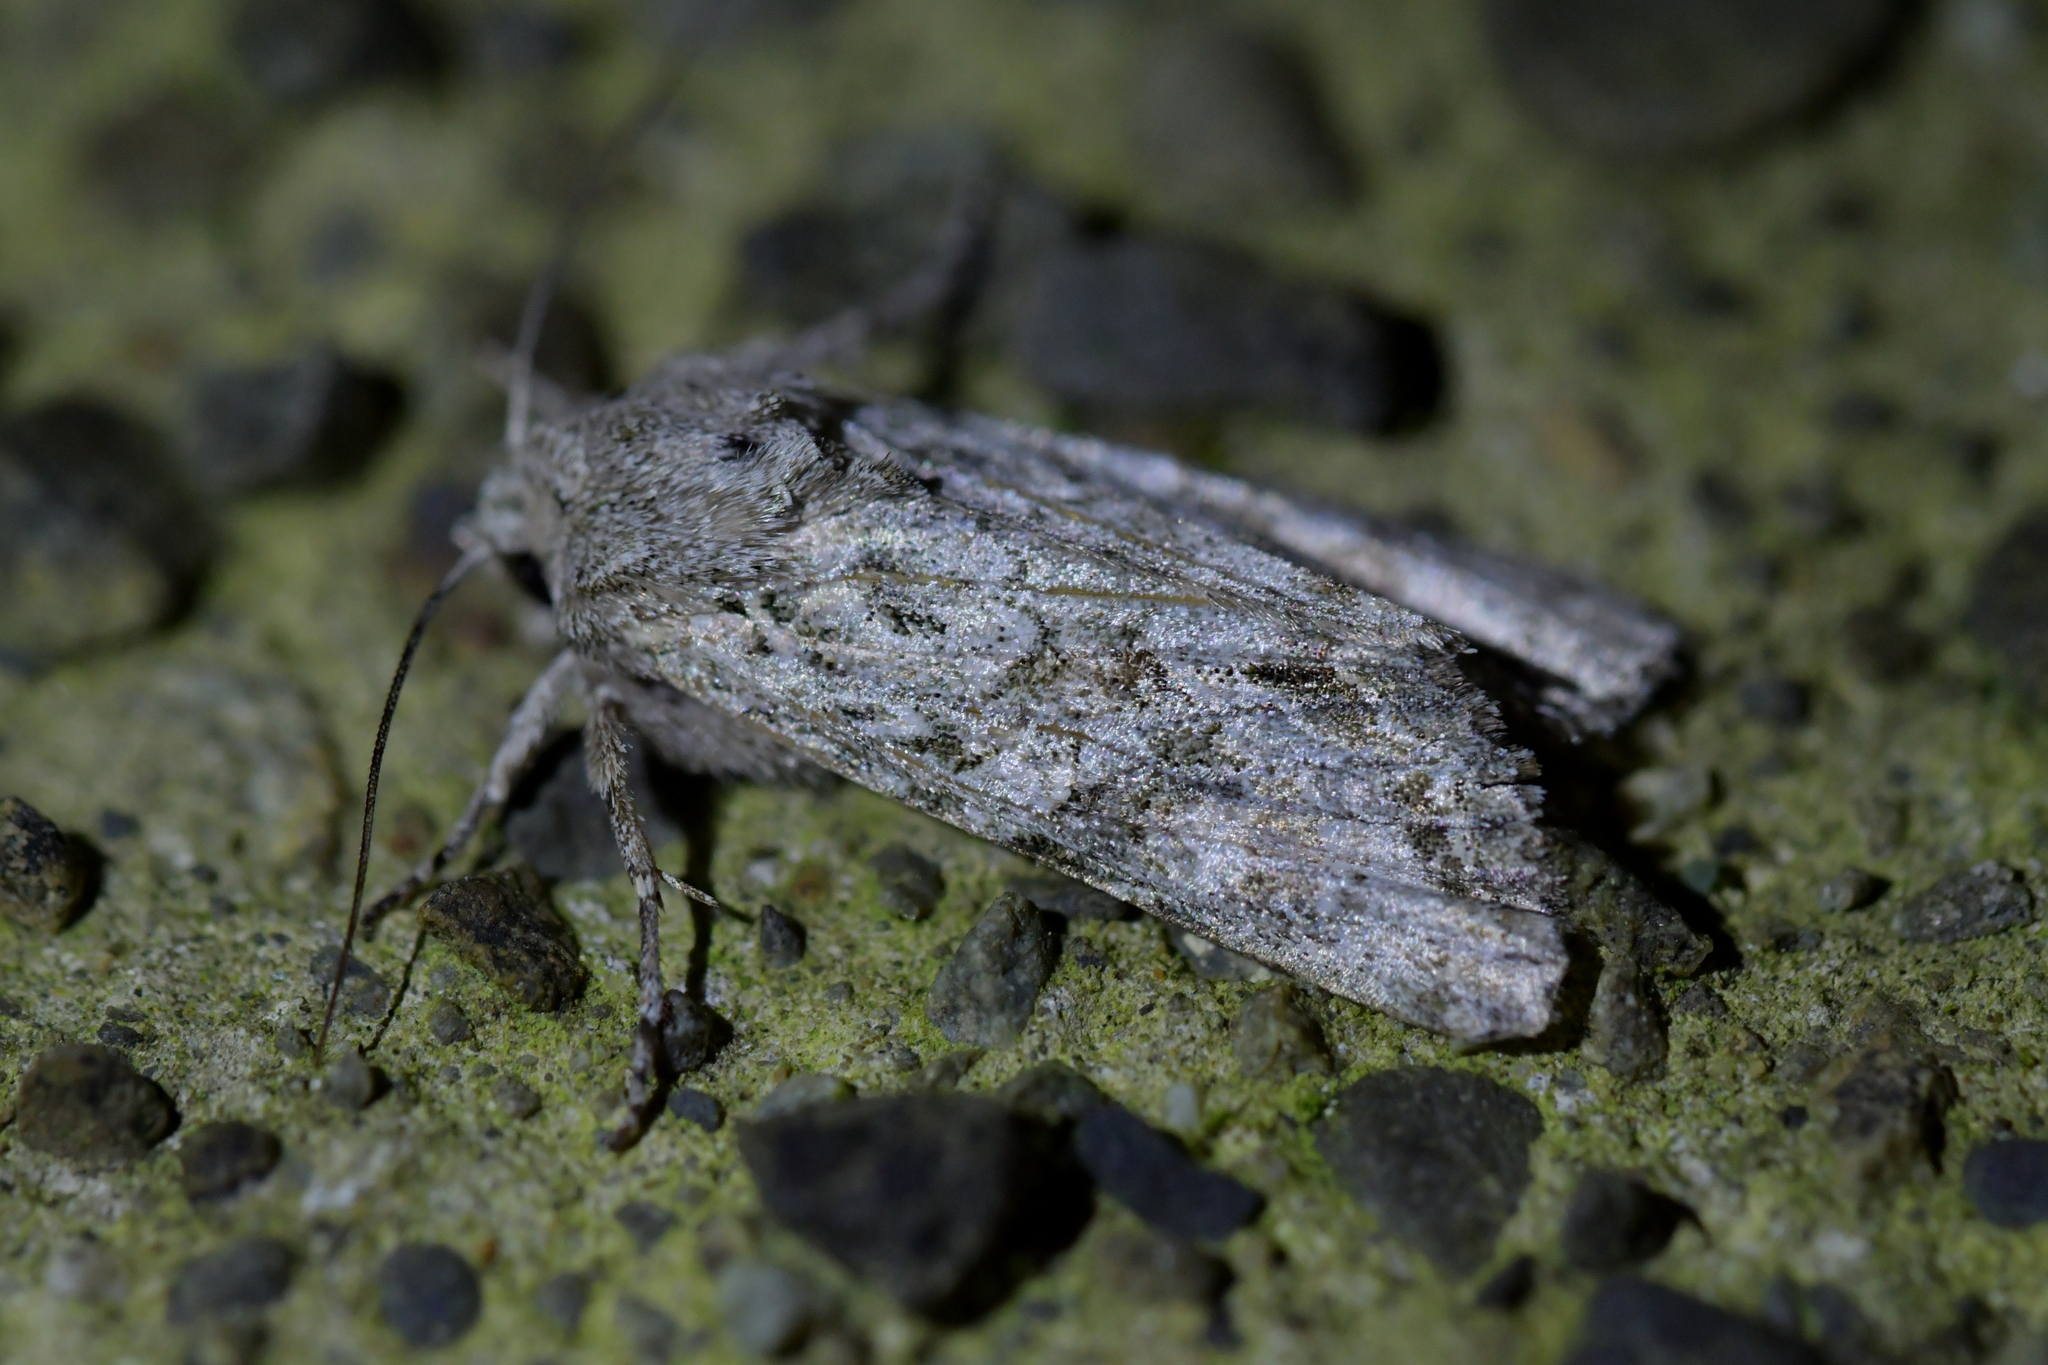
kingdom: Animalia
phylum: Arthropoda
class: Insecta
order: Lepidoptera
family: Noctuidae
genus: Ichneutica
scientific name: Ichneutica mutans
